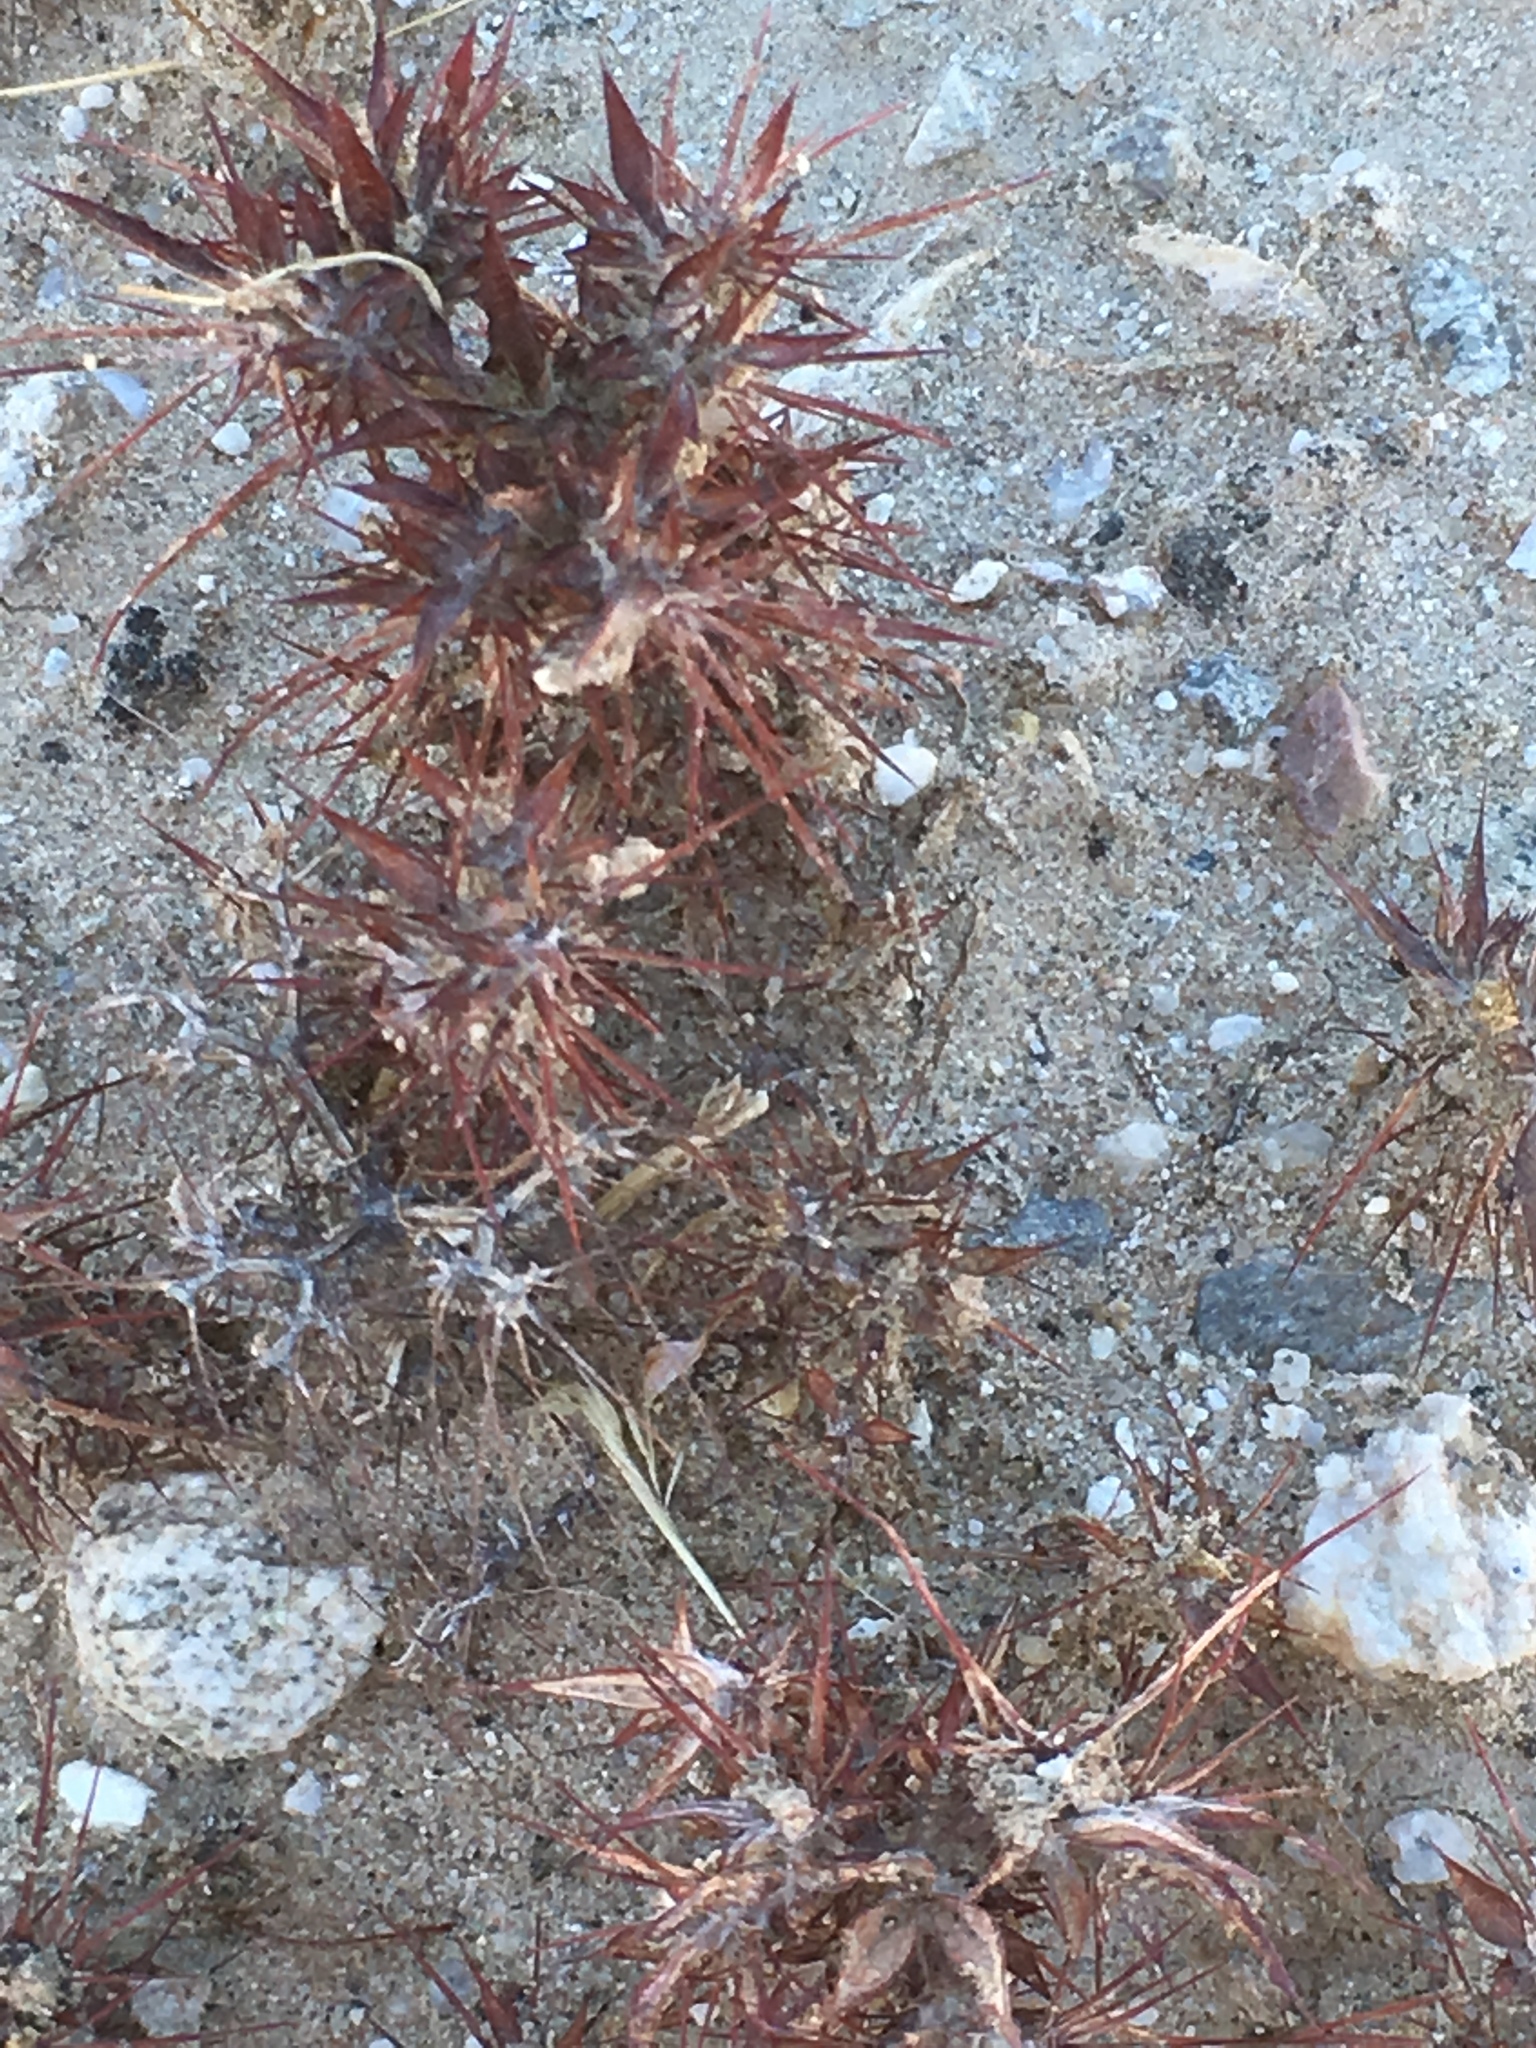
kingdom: Plantae
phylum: Tracheophyta
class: Magnoliopsida
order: Caryophyllales
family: Polygonaceae
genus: Chorizanthe
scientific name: Chorizanthe rigida
